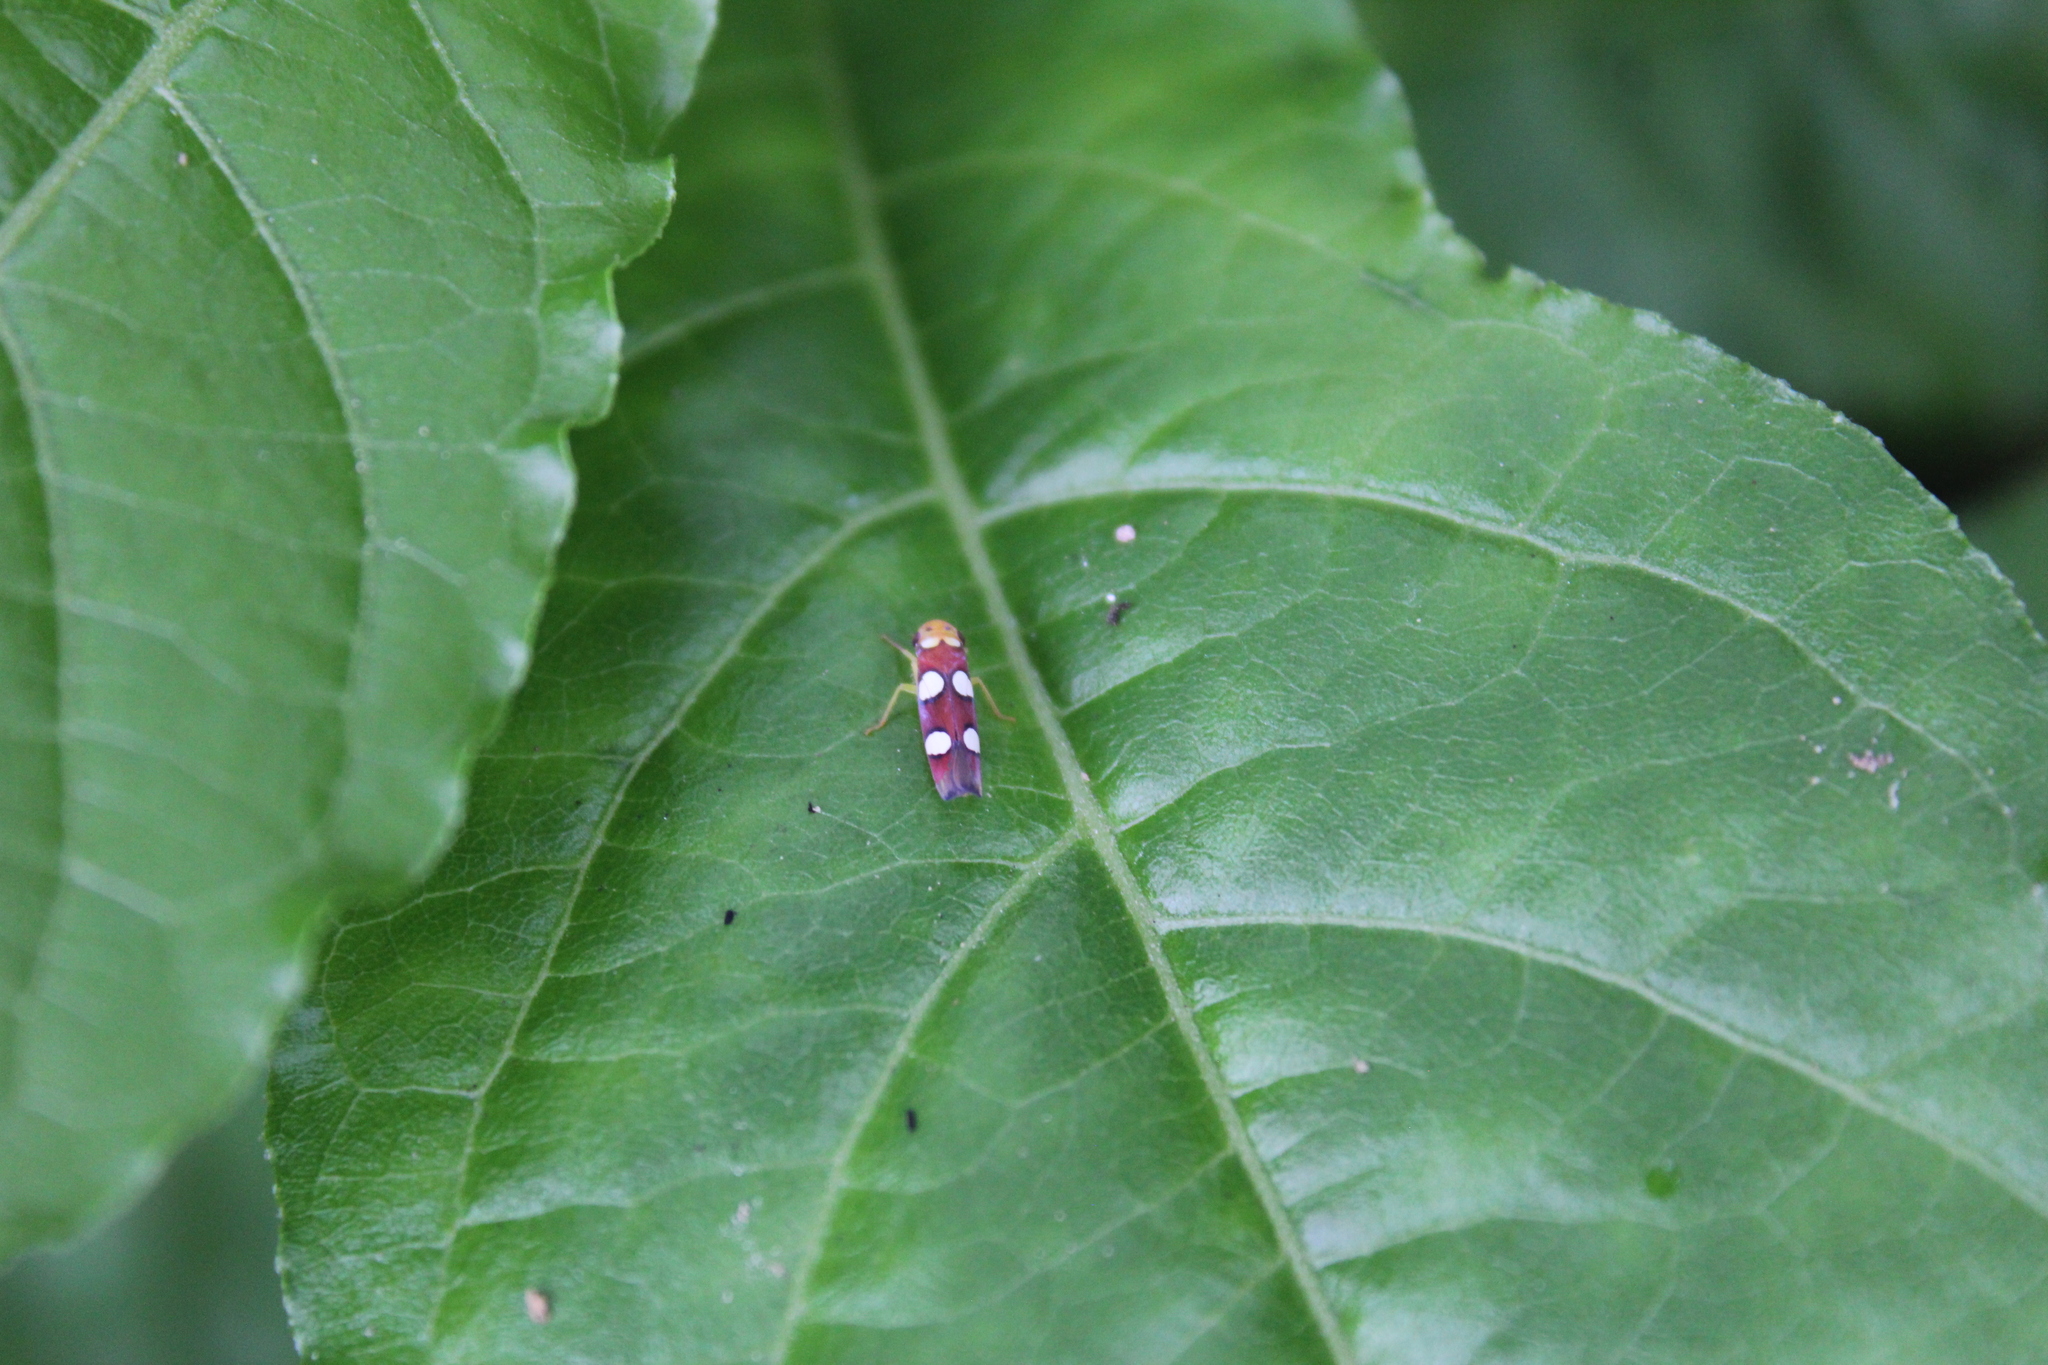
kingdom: Animalia
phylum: Arthropoda
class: Insecta
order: Hemiptera
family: Cicadellidae
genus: Erythrogonia
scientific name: Erythrogonia laudata
